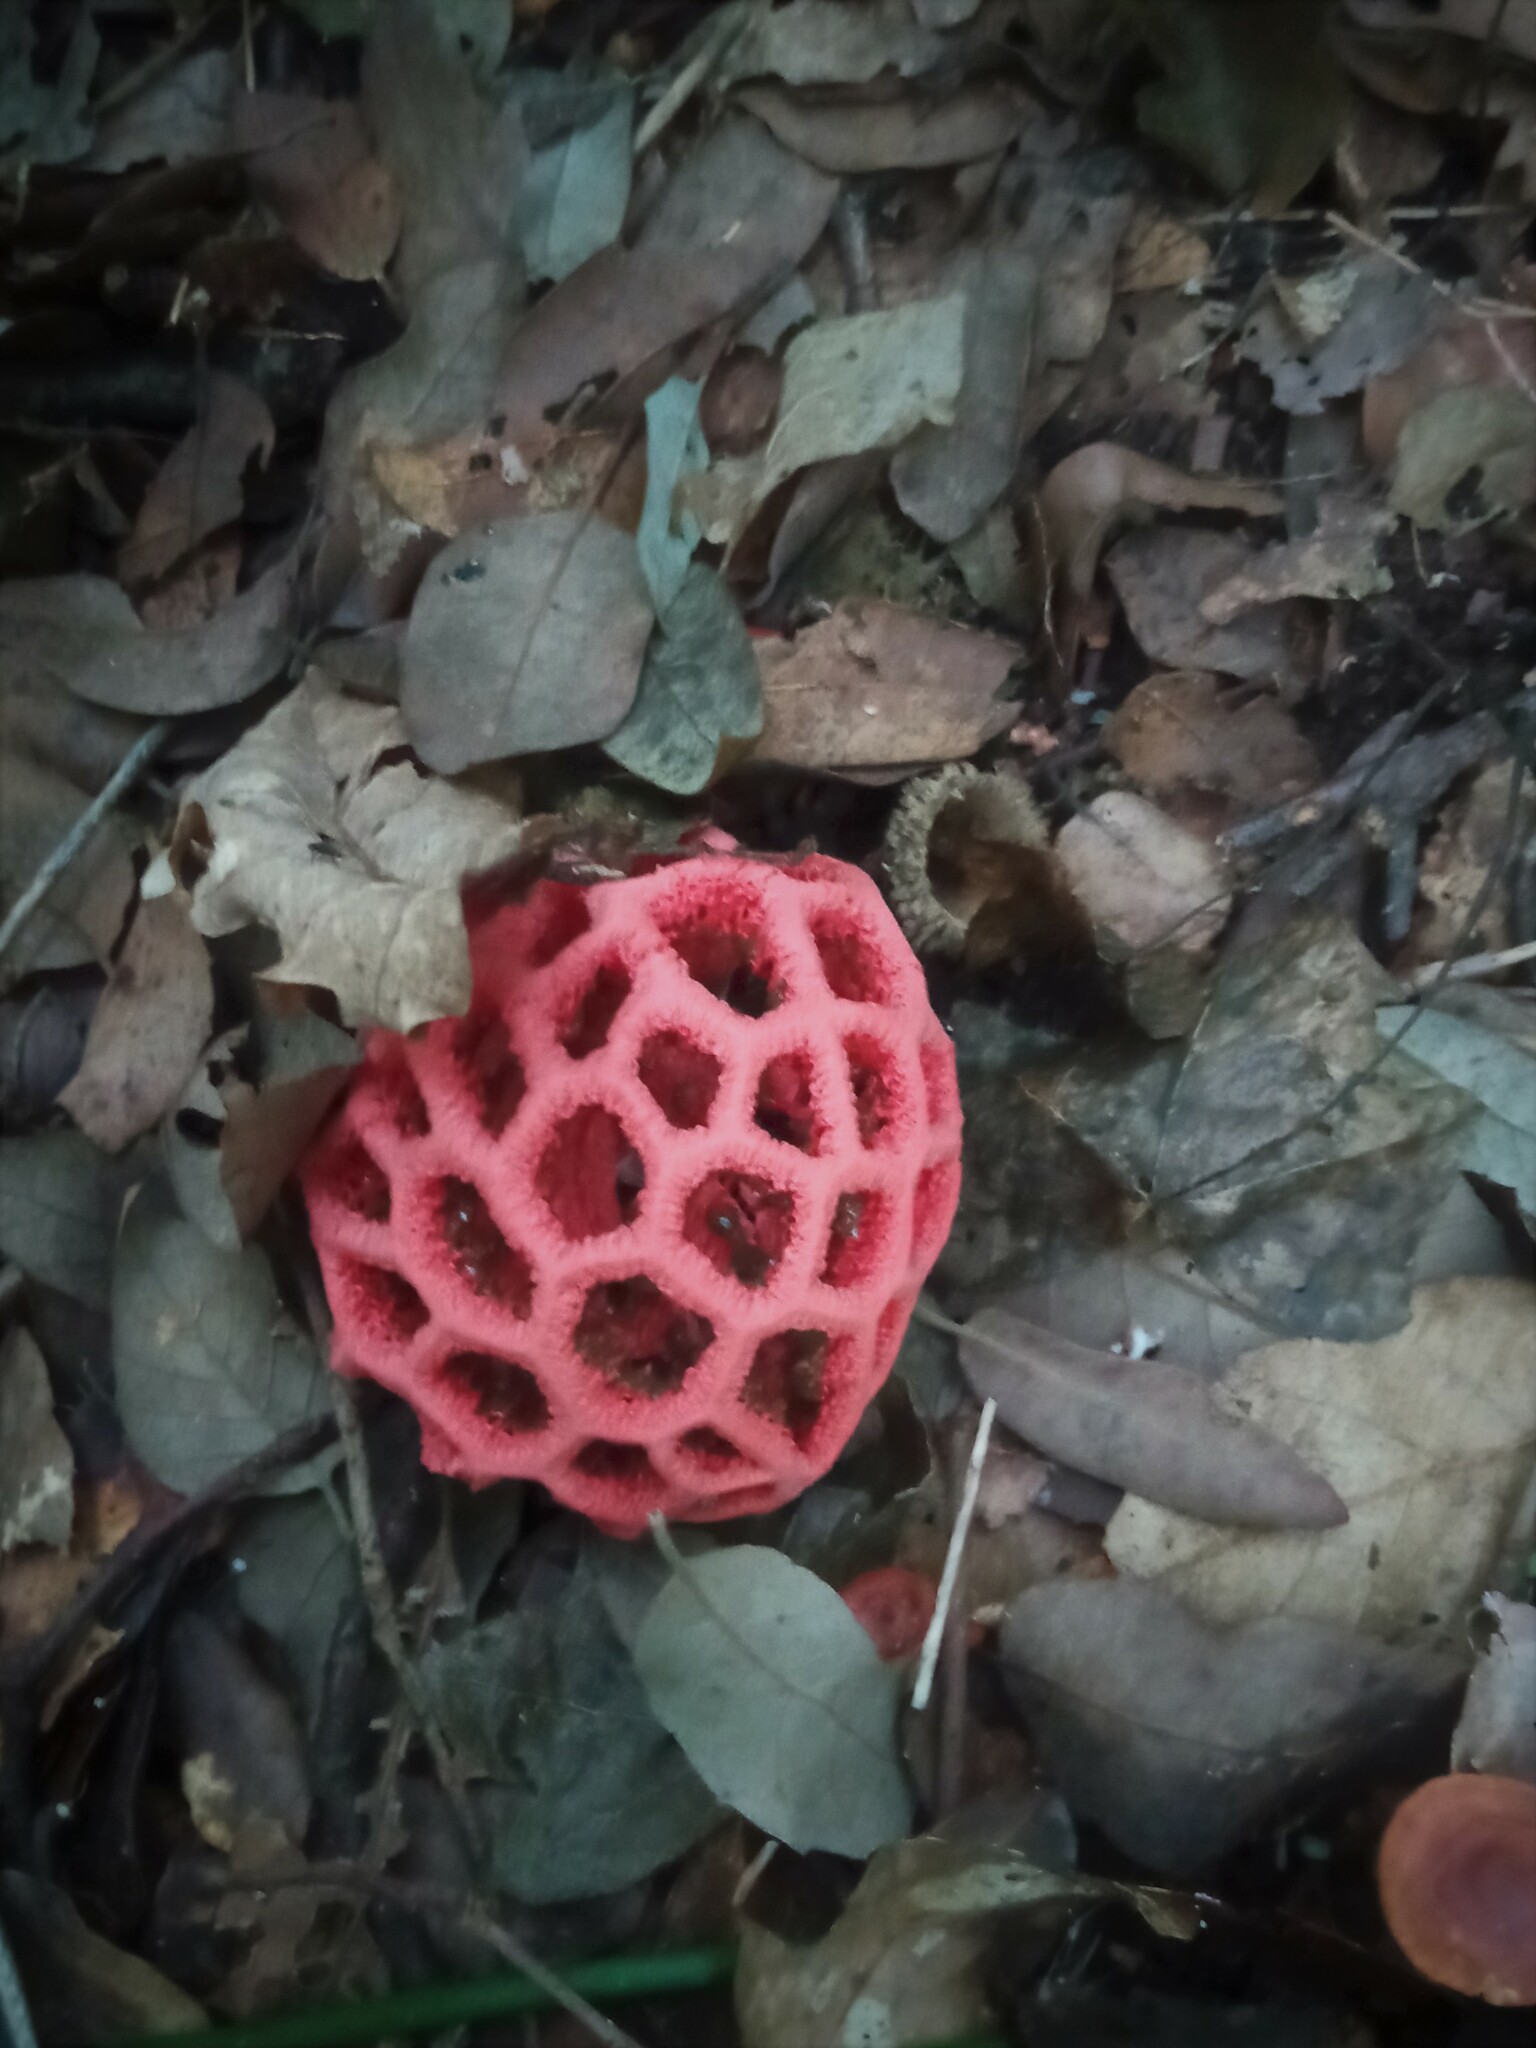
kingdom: Fungi
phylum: Basidiomycota
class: Agaricomycetes
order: Phallales
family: Phallaceae
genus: Clathrus
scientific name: Clathrus ruber
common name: Red cage
